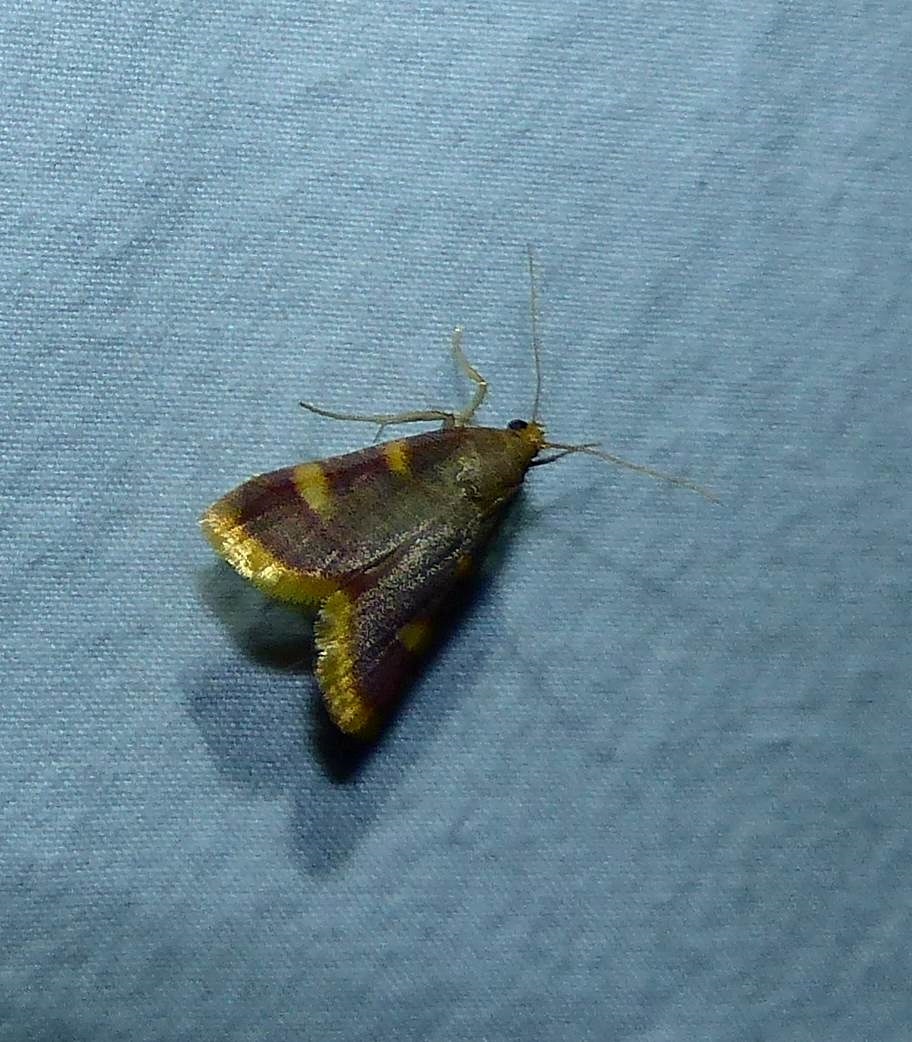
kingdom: Animalia
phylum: Arthropoda
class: Insecta
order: Lepidoptera
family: Pyralidae
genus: Hypsopygia
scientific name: Hypsopygia costalis
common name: Gold triangle
